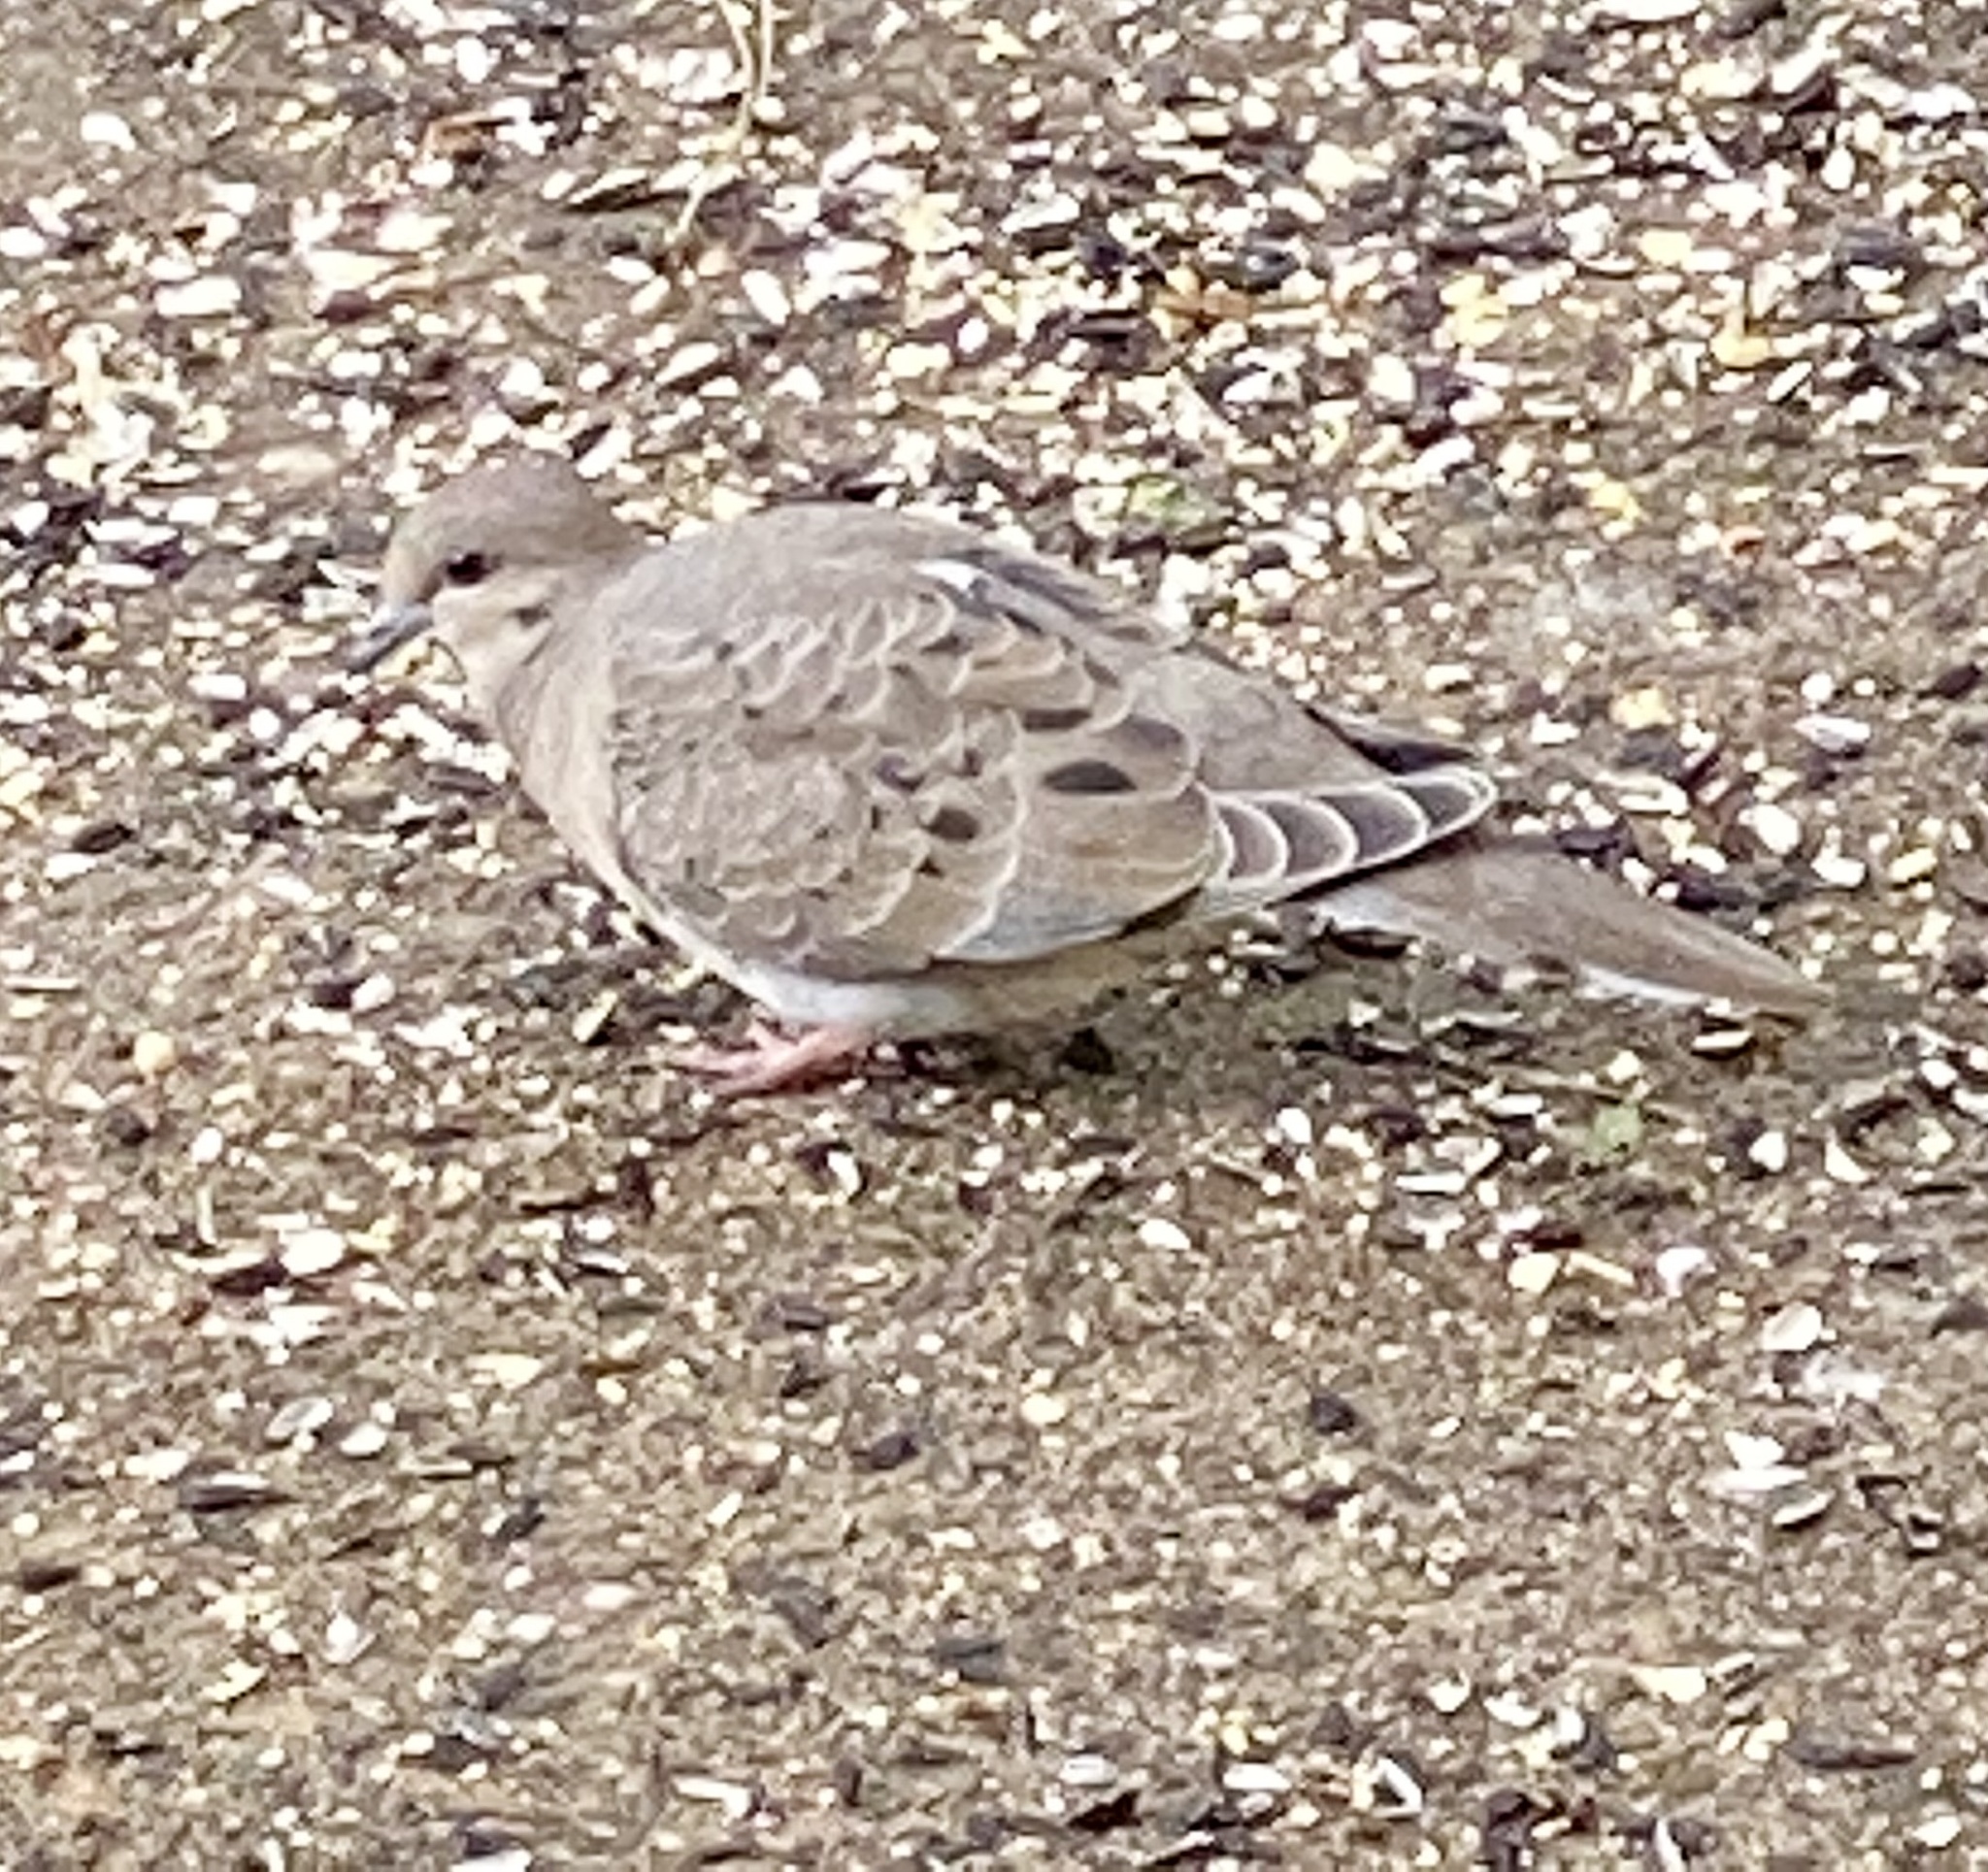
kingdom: Animalia
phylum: Chordata
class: Aves
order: Columbiformes
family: Columbidae
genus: Zenaida
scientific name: Zenaida macroura
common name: Mourning dove
